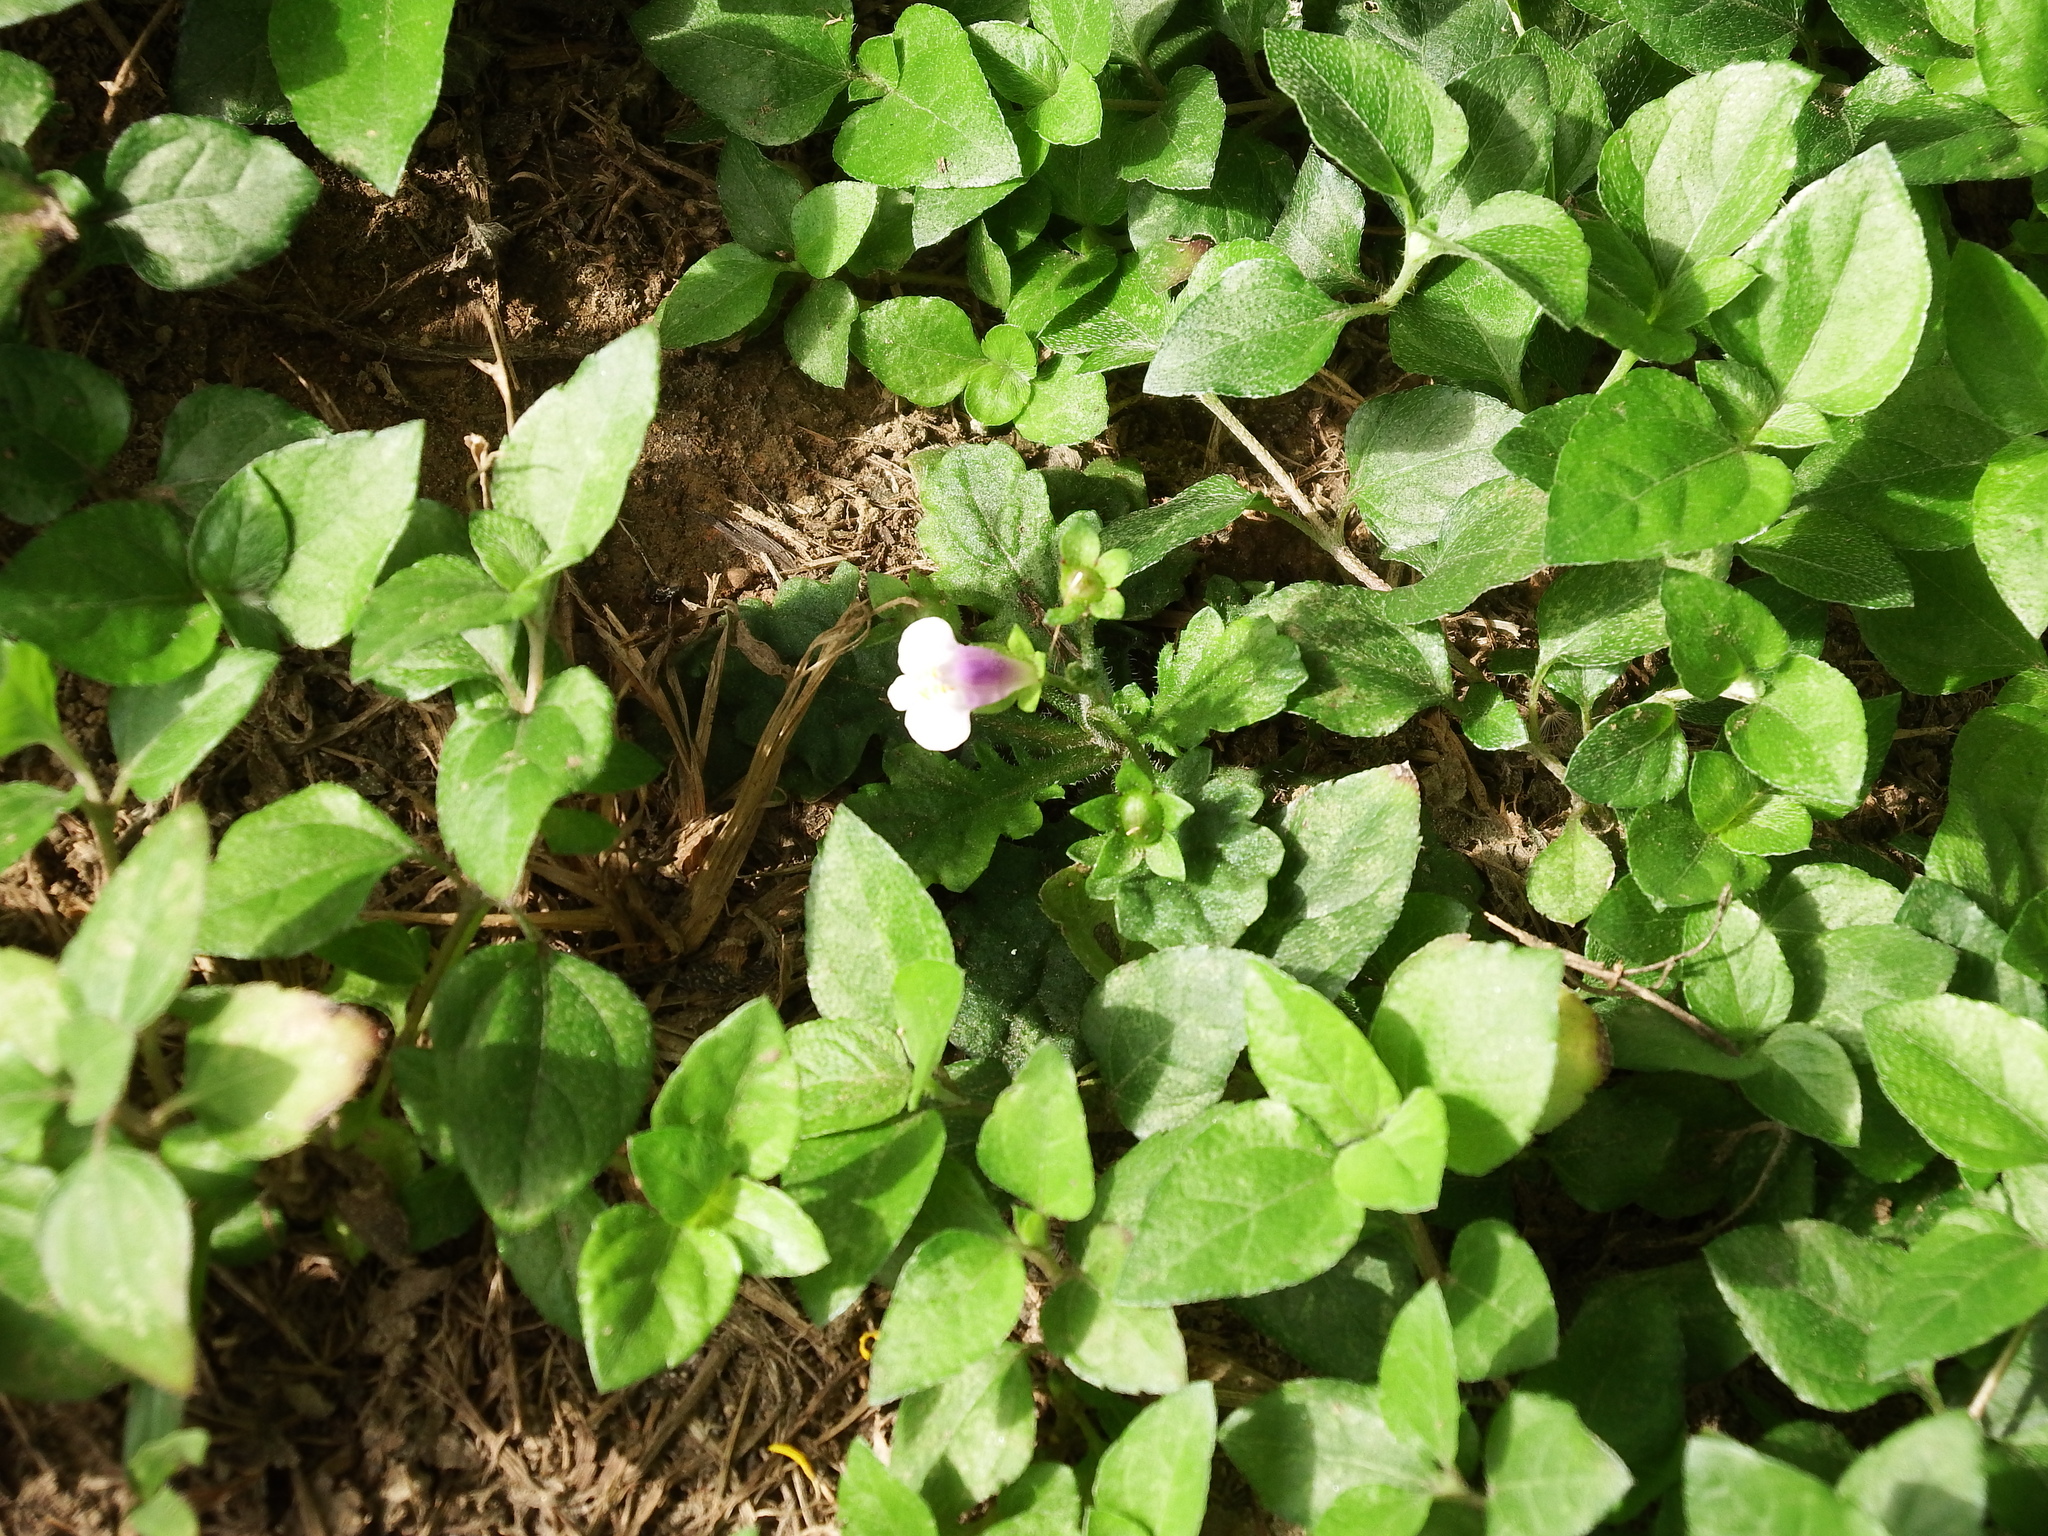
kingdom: Plantae
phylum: Tracheophyta
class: Magnoliopsida
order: Lamiales
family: Mazaceae
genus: Mazus
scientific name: Mazus pumilus
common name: Japanese mazus
